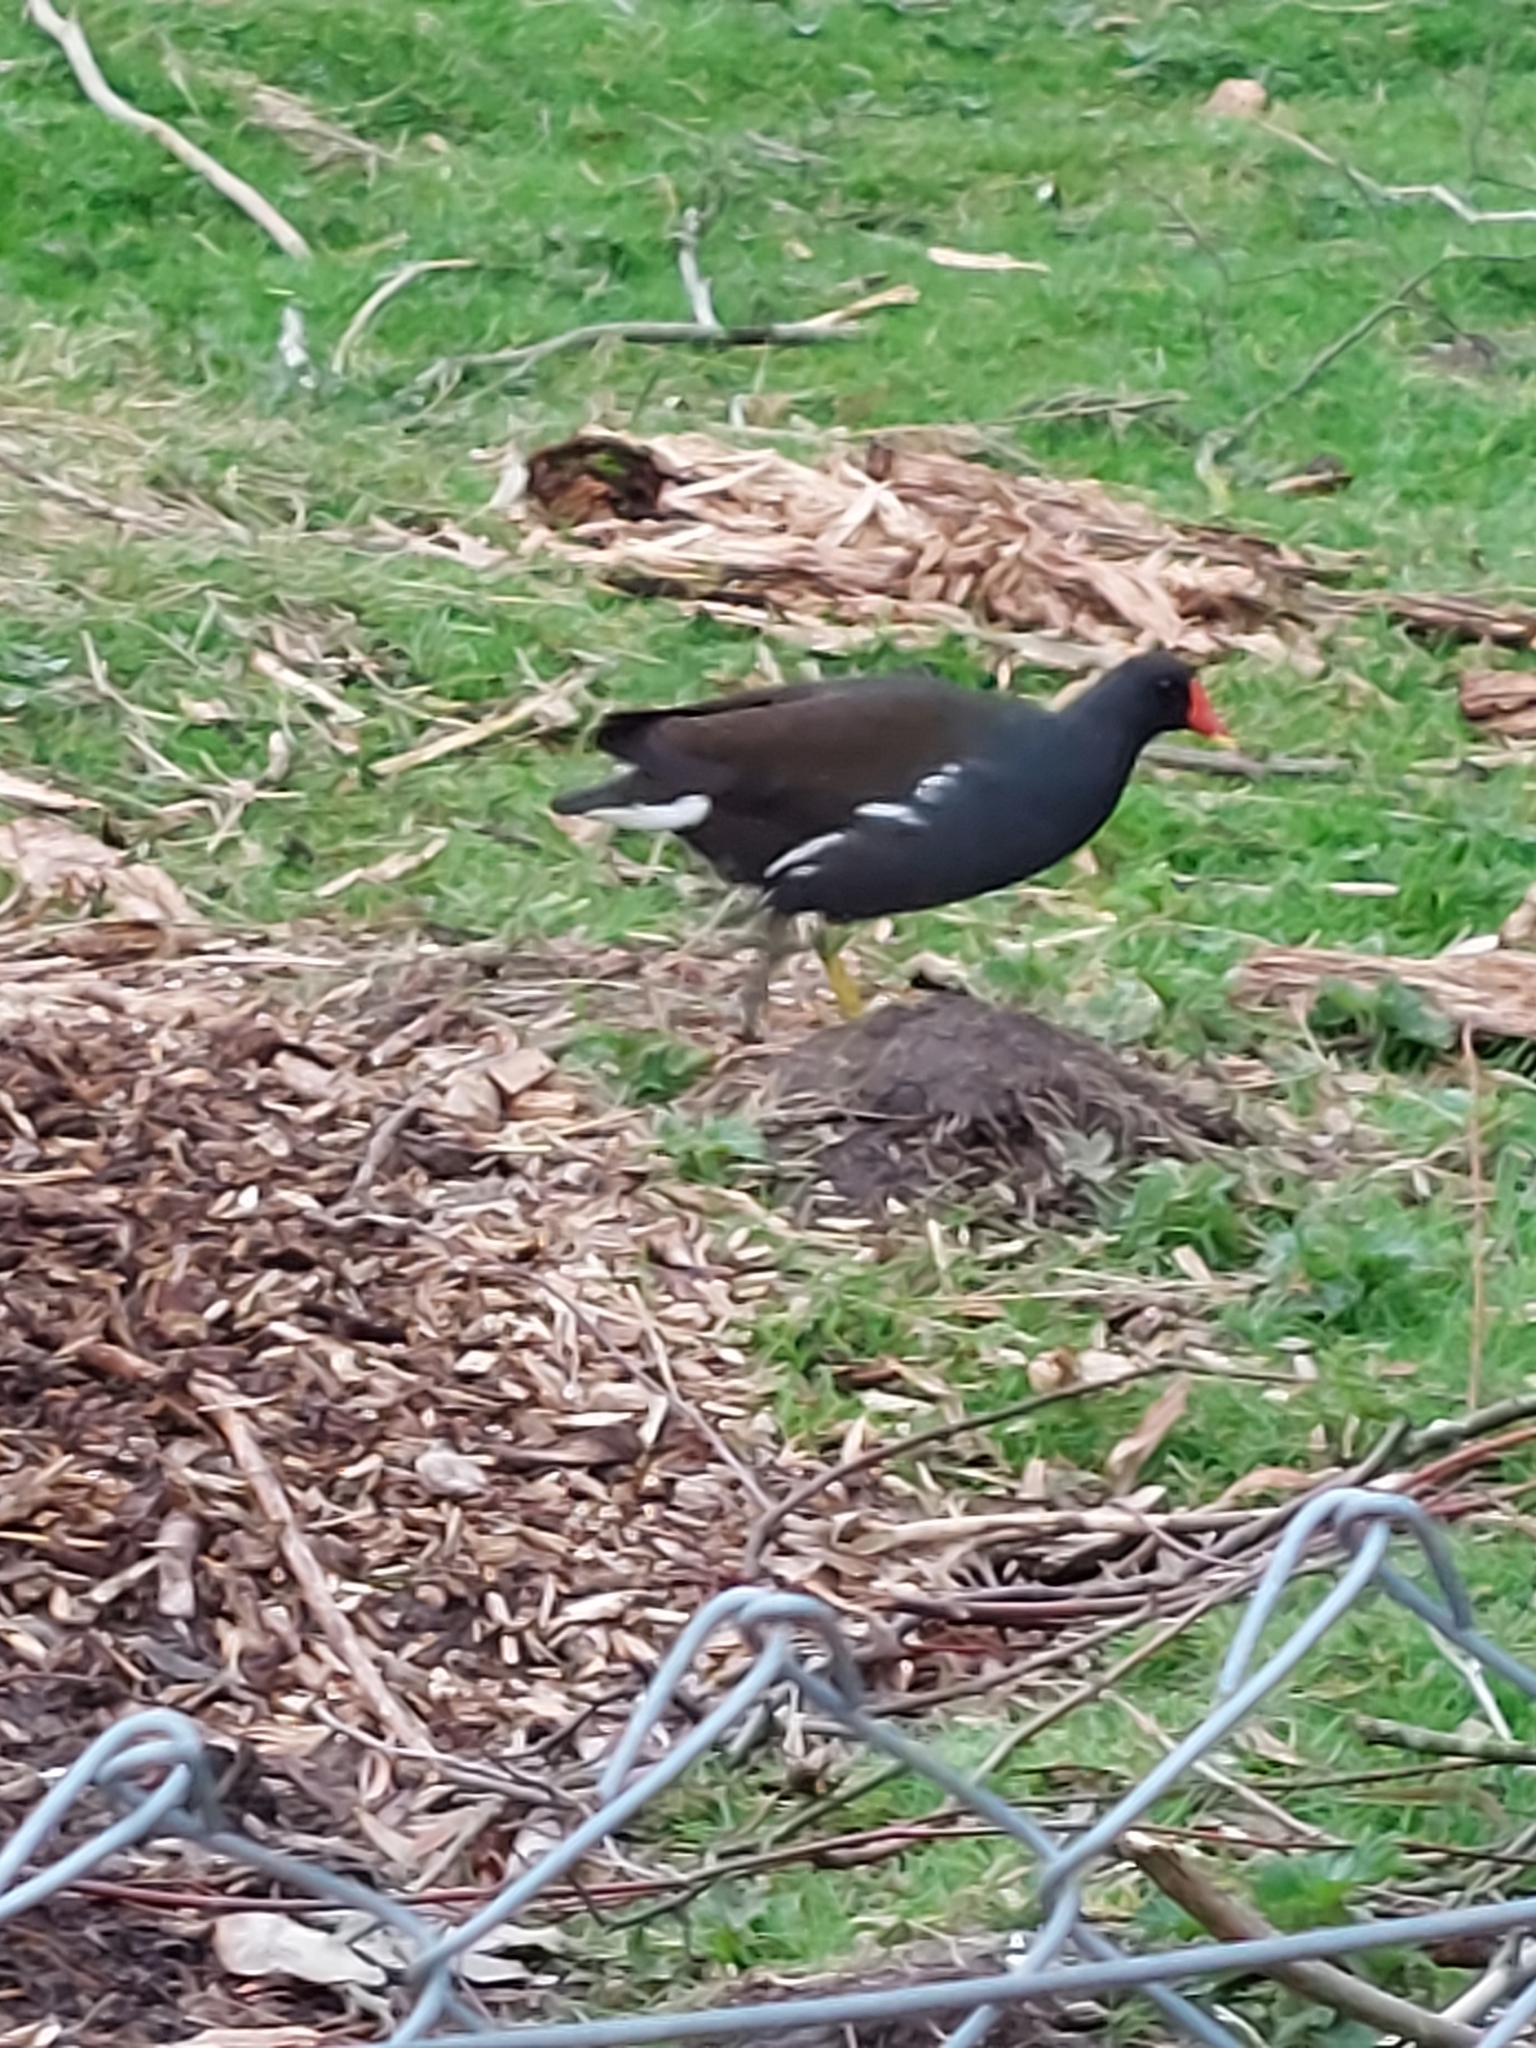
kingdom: Animalia
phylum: Chordata
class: Aves
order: Gruiformes
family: Rallidae
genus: Gallinula
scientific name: Gallinula chloropus
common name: Common moorhen
